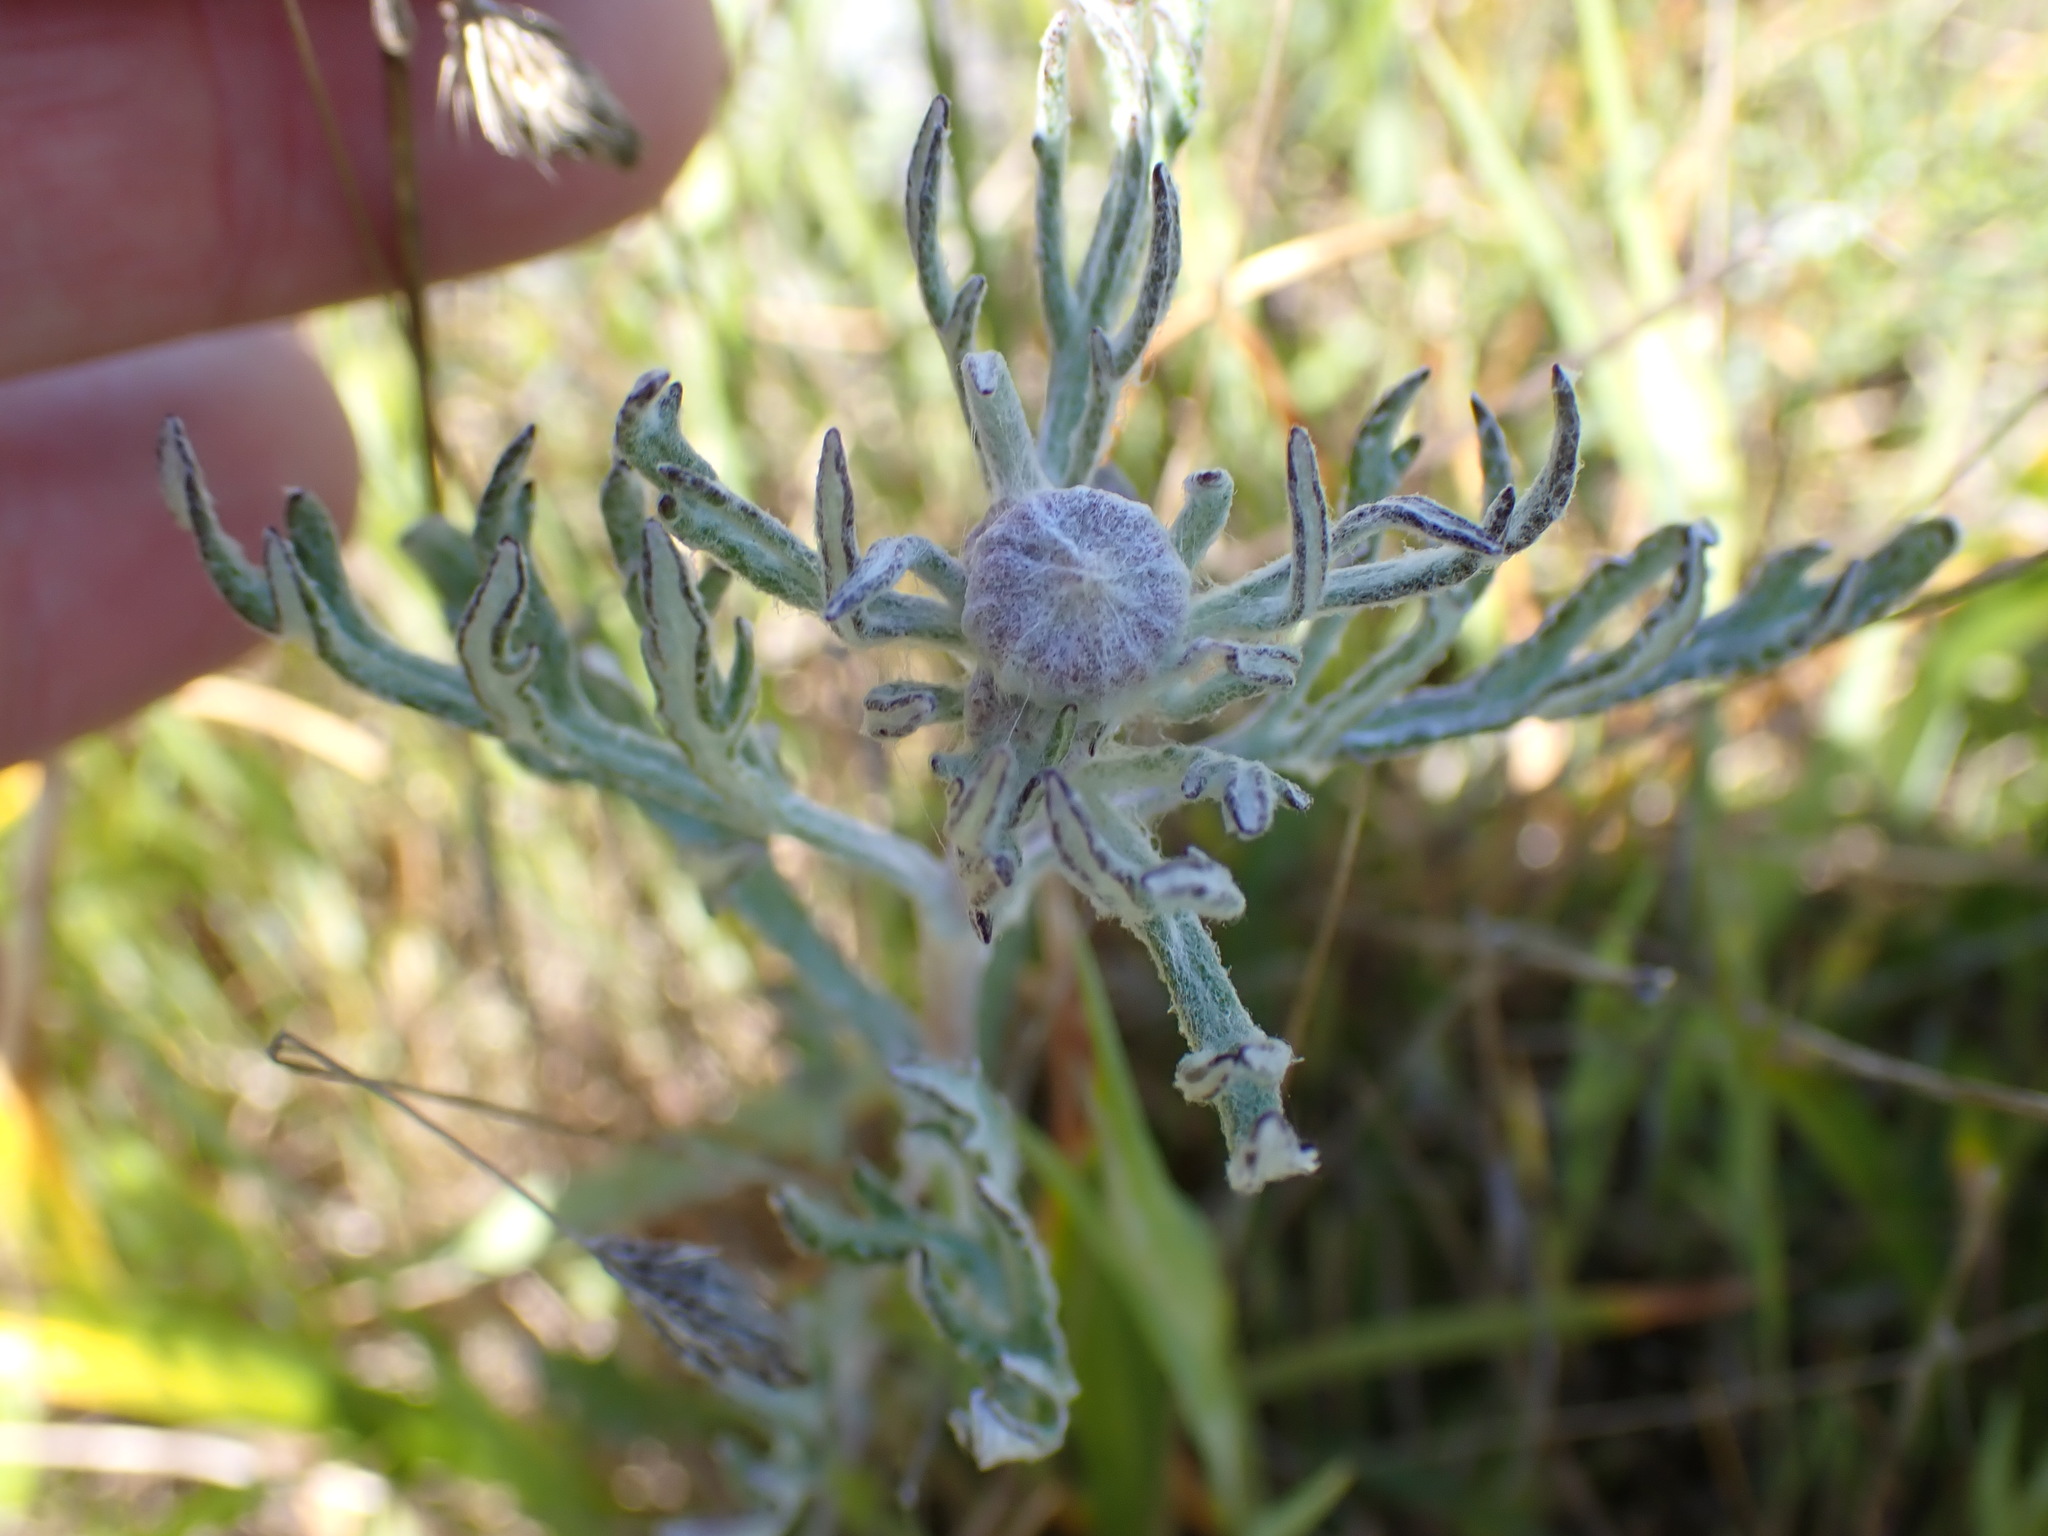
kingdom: Plantae
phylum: Tracheophyta
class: Magnoliopsida
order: Asterales
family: Asteraceae
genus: Eriophyllum
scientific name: Eriophyllum lanatum
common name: Common woolly-sunflower
